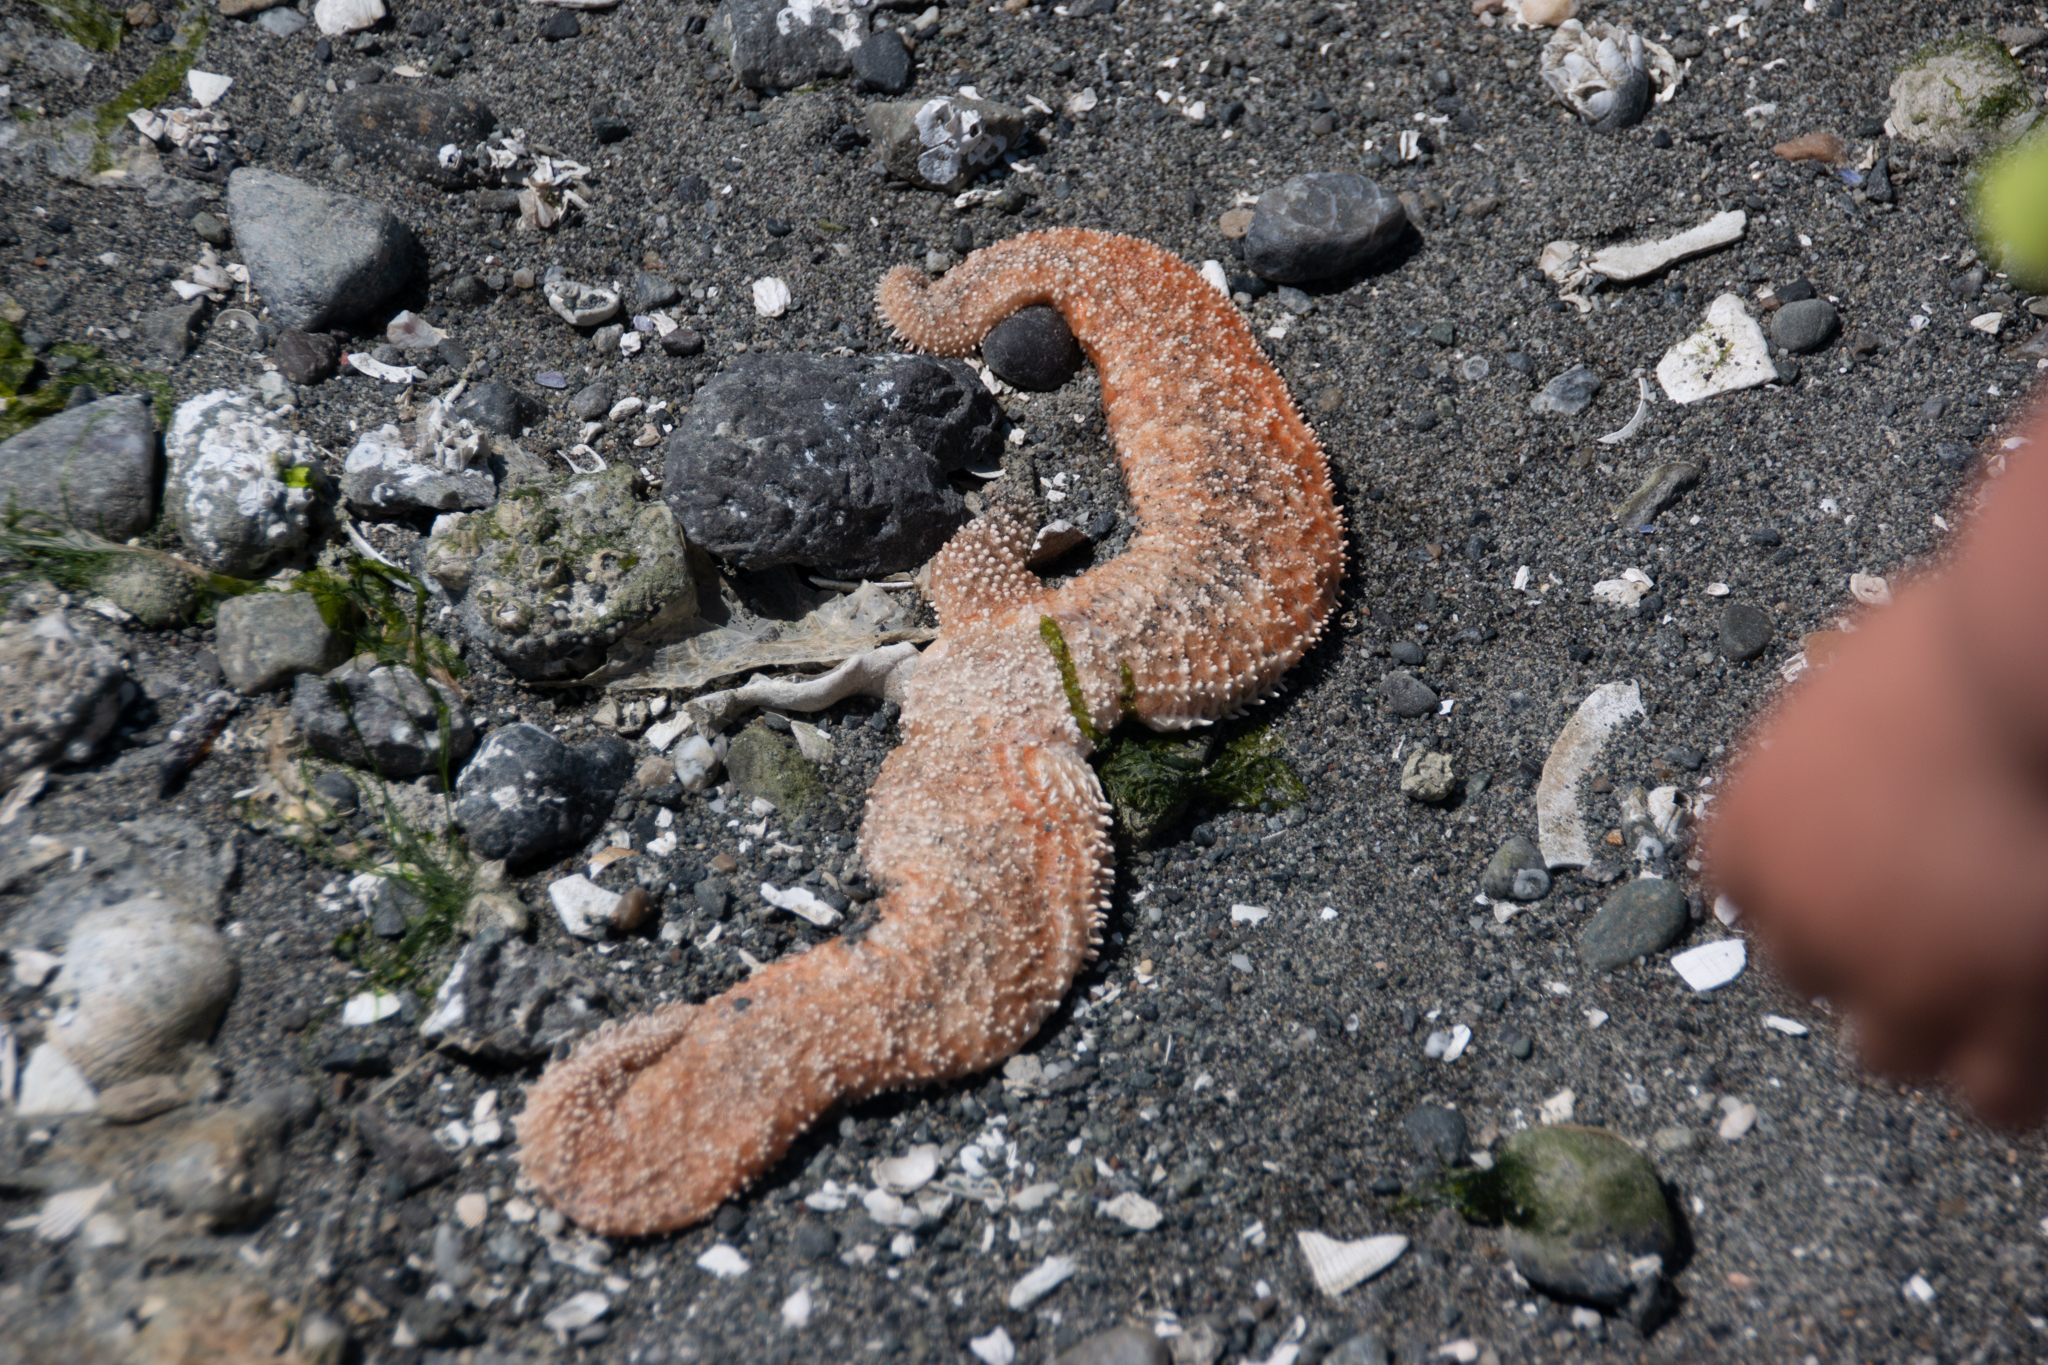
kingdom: Animalia
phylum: Echinodermata
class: Asteroidea
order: Forcipulatida
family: Asteriidae
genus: Evasterias
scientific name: Evasterias troschelii
